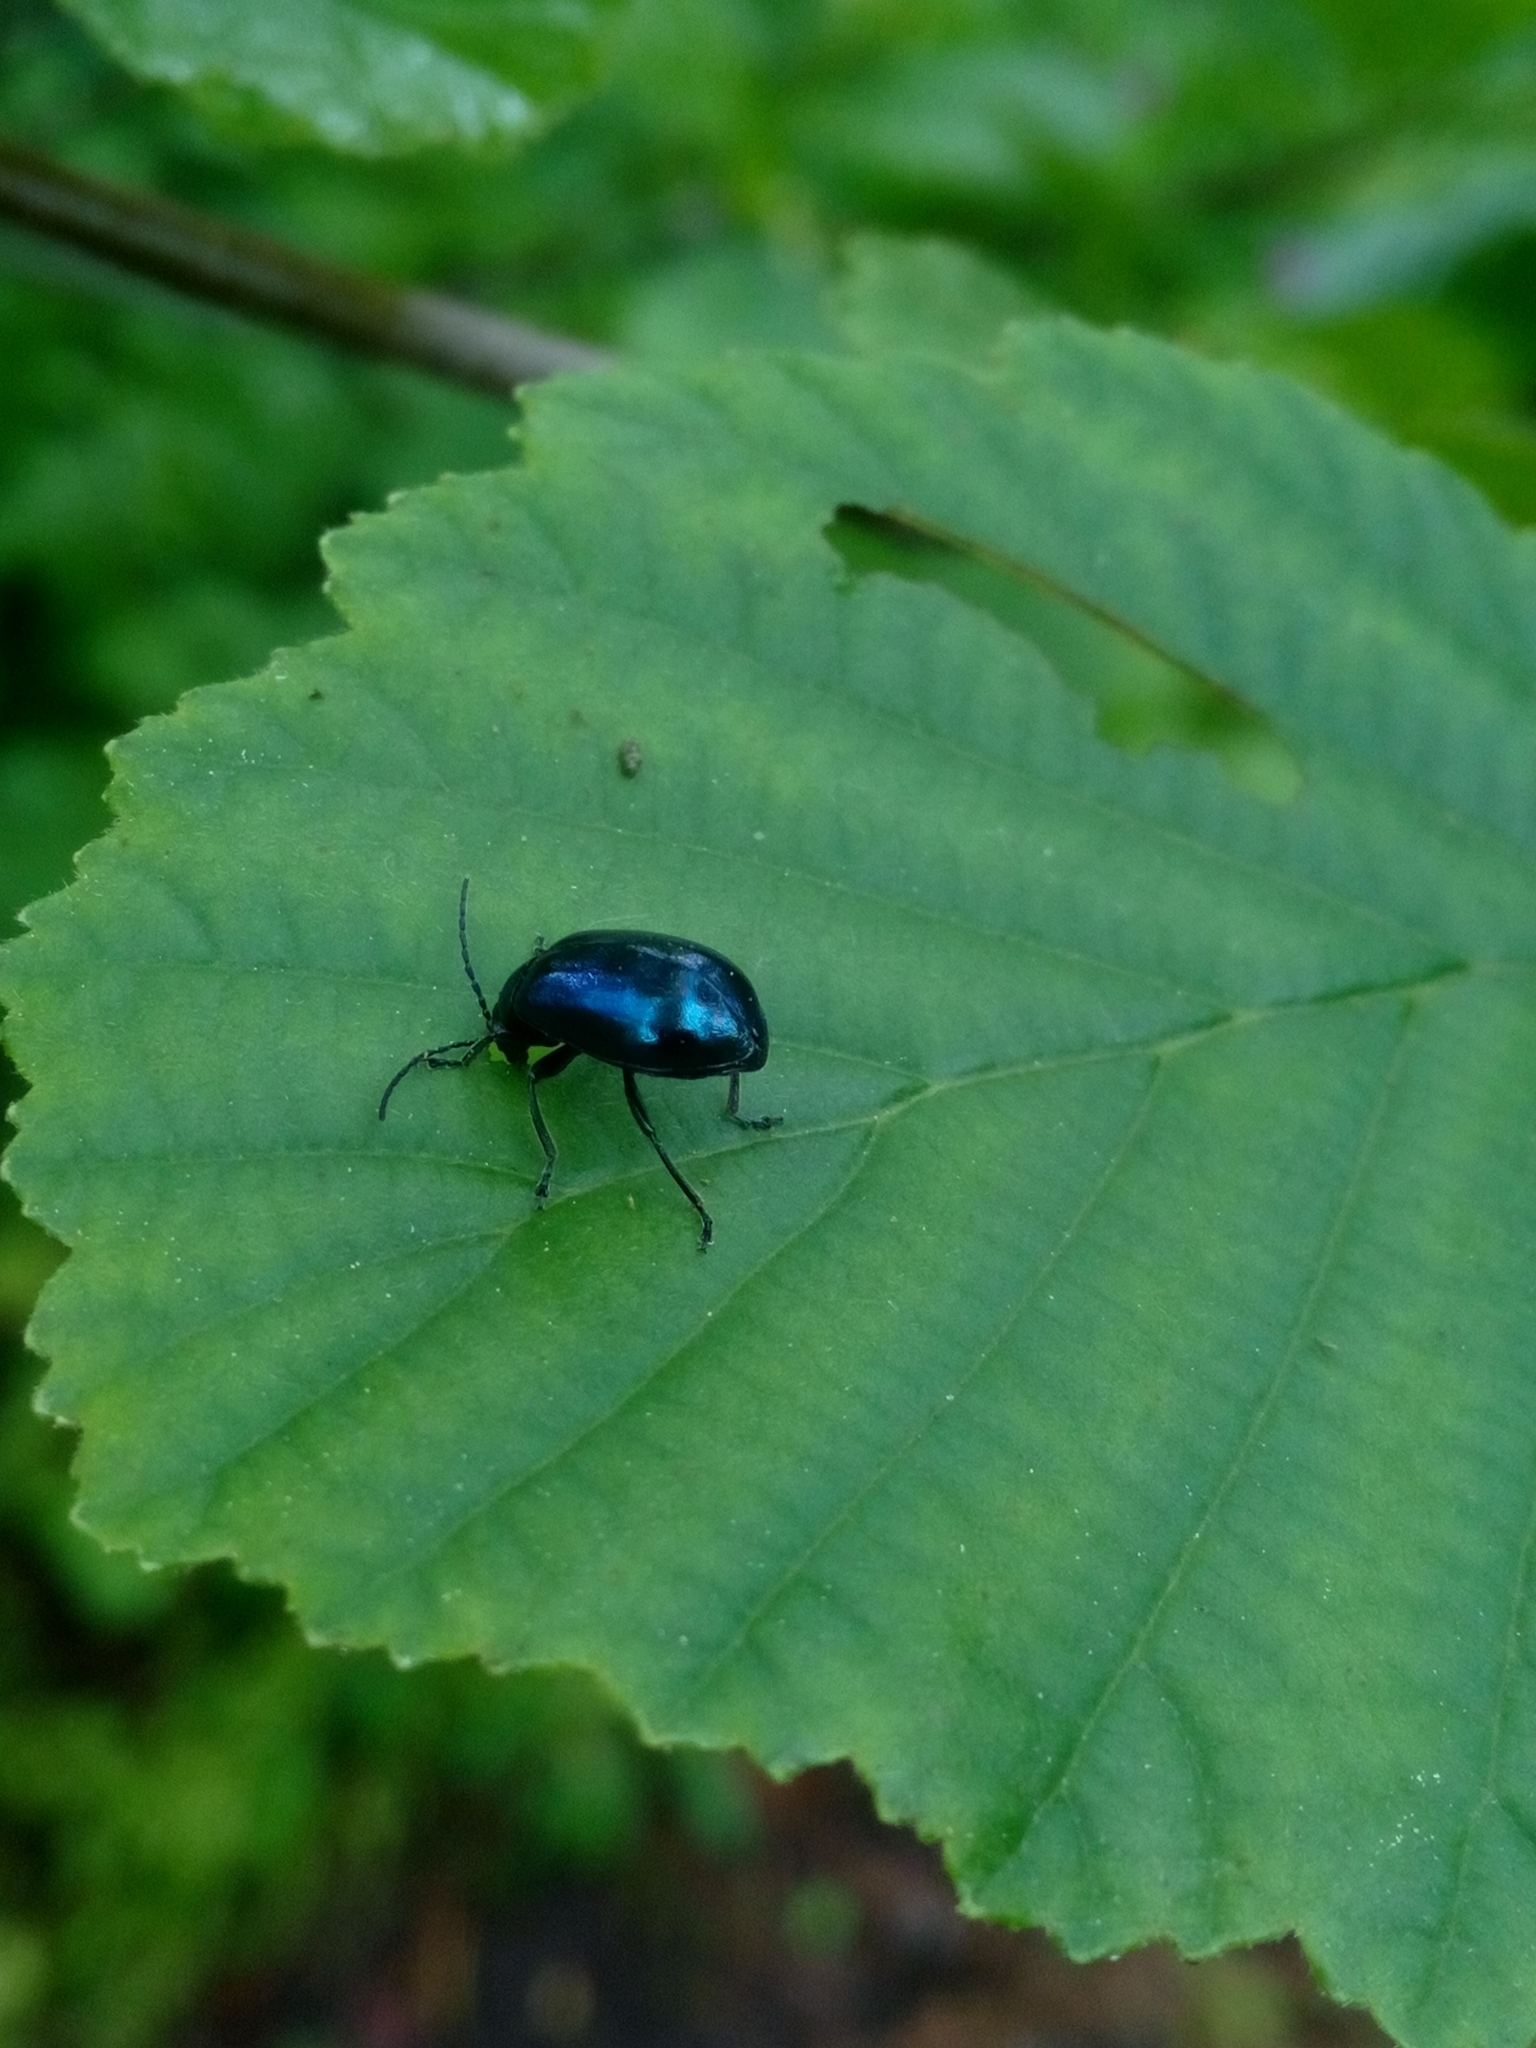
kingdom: Animalia
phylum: Arthropoda
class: Insecta
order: Coleoptera
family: Chrysomelidae
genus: Agelastica
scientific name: Agelastica alni
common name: Alder leaf beetle
